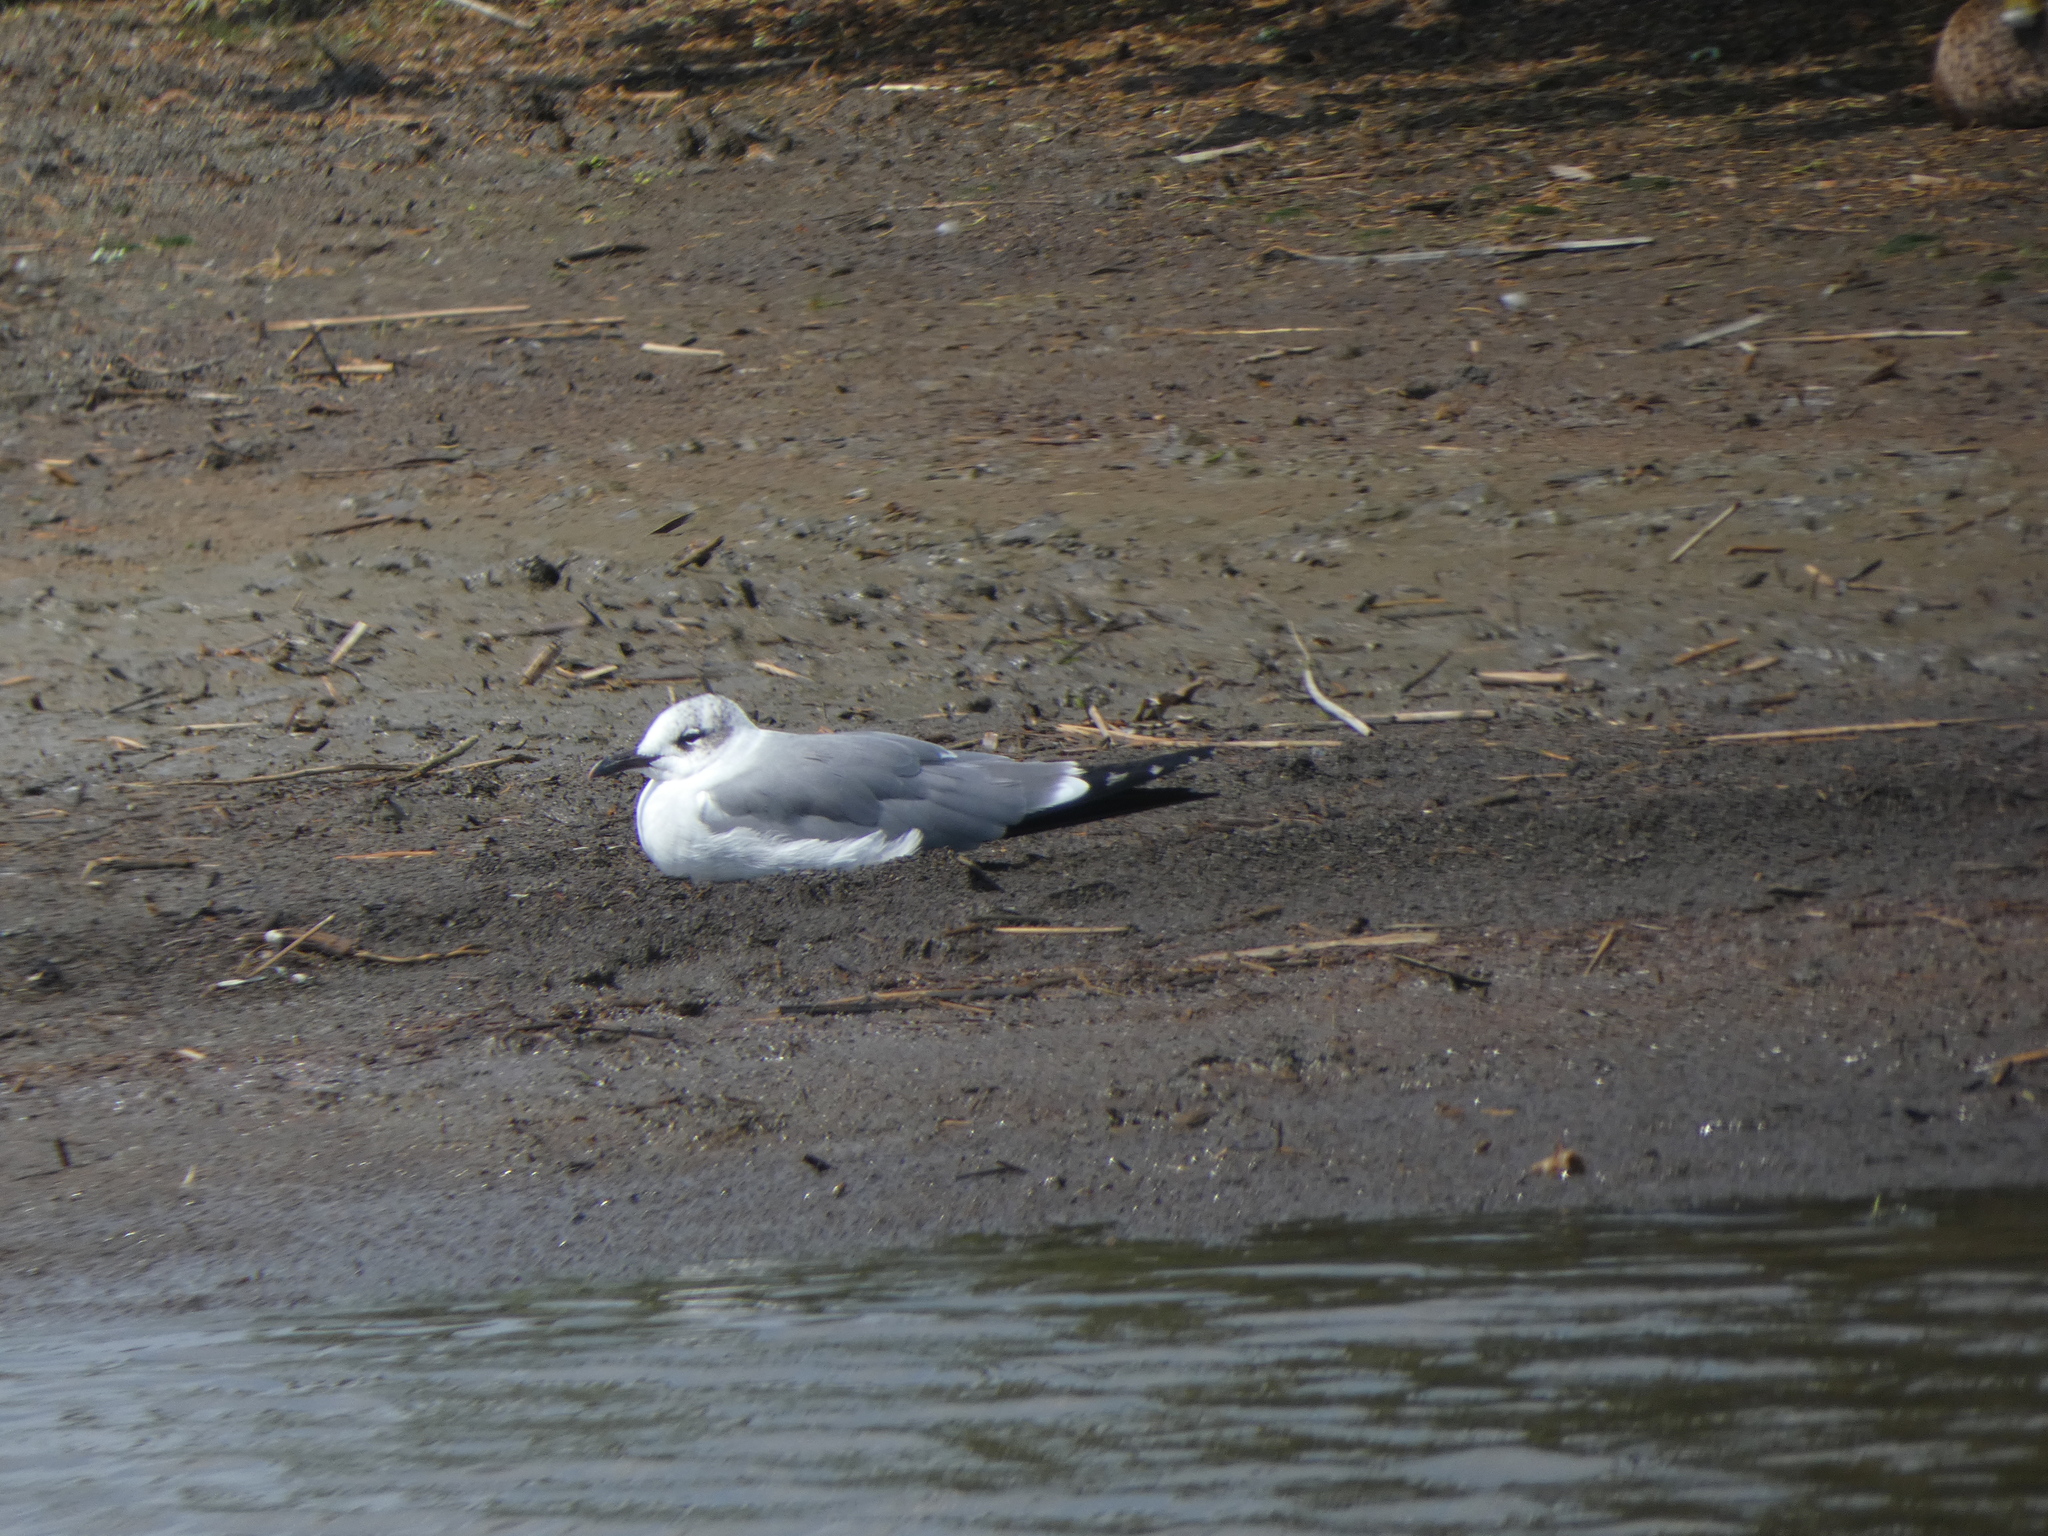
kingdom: Animalia
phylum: Chordata
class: Aves
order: Charadriiformes
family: Laridae
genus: Leucophaeus
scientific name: Leucophaeus atricilla
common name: Laughing gull
